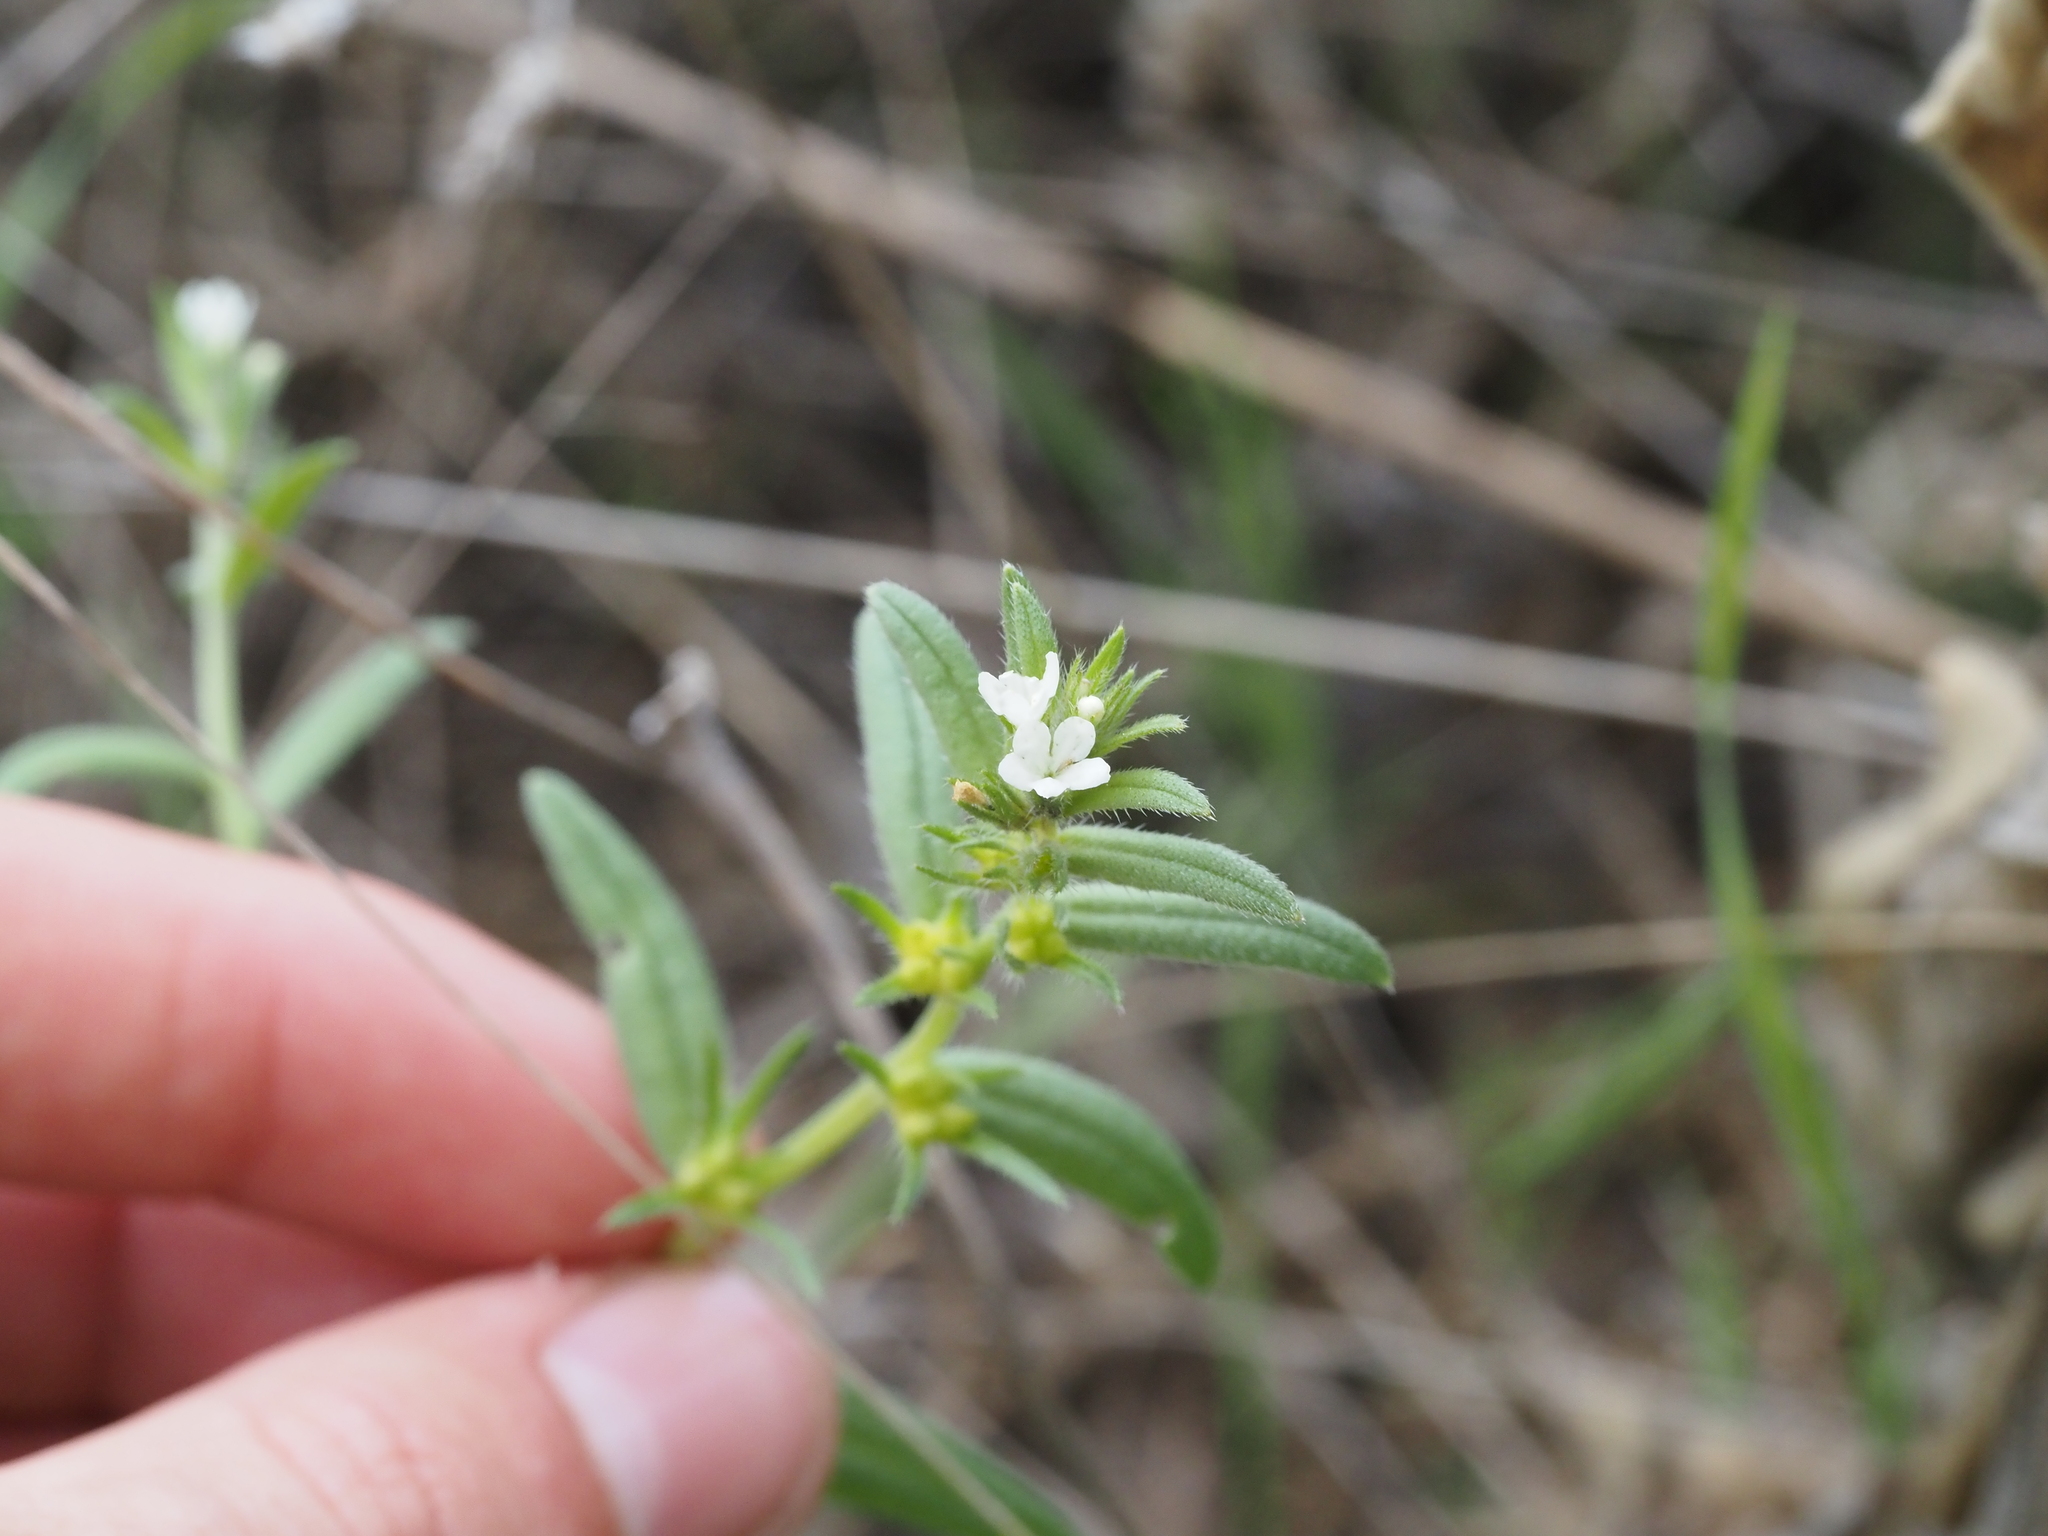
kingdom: Plantae
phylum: Tracheophyta
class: Magnoliopsida
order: Boraginales
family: Boraginaceae
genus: Buglossoides
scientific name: Buglossoides arvensis
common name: Corn gromwell
